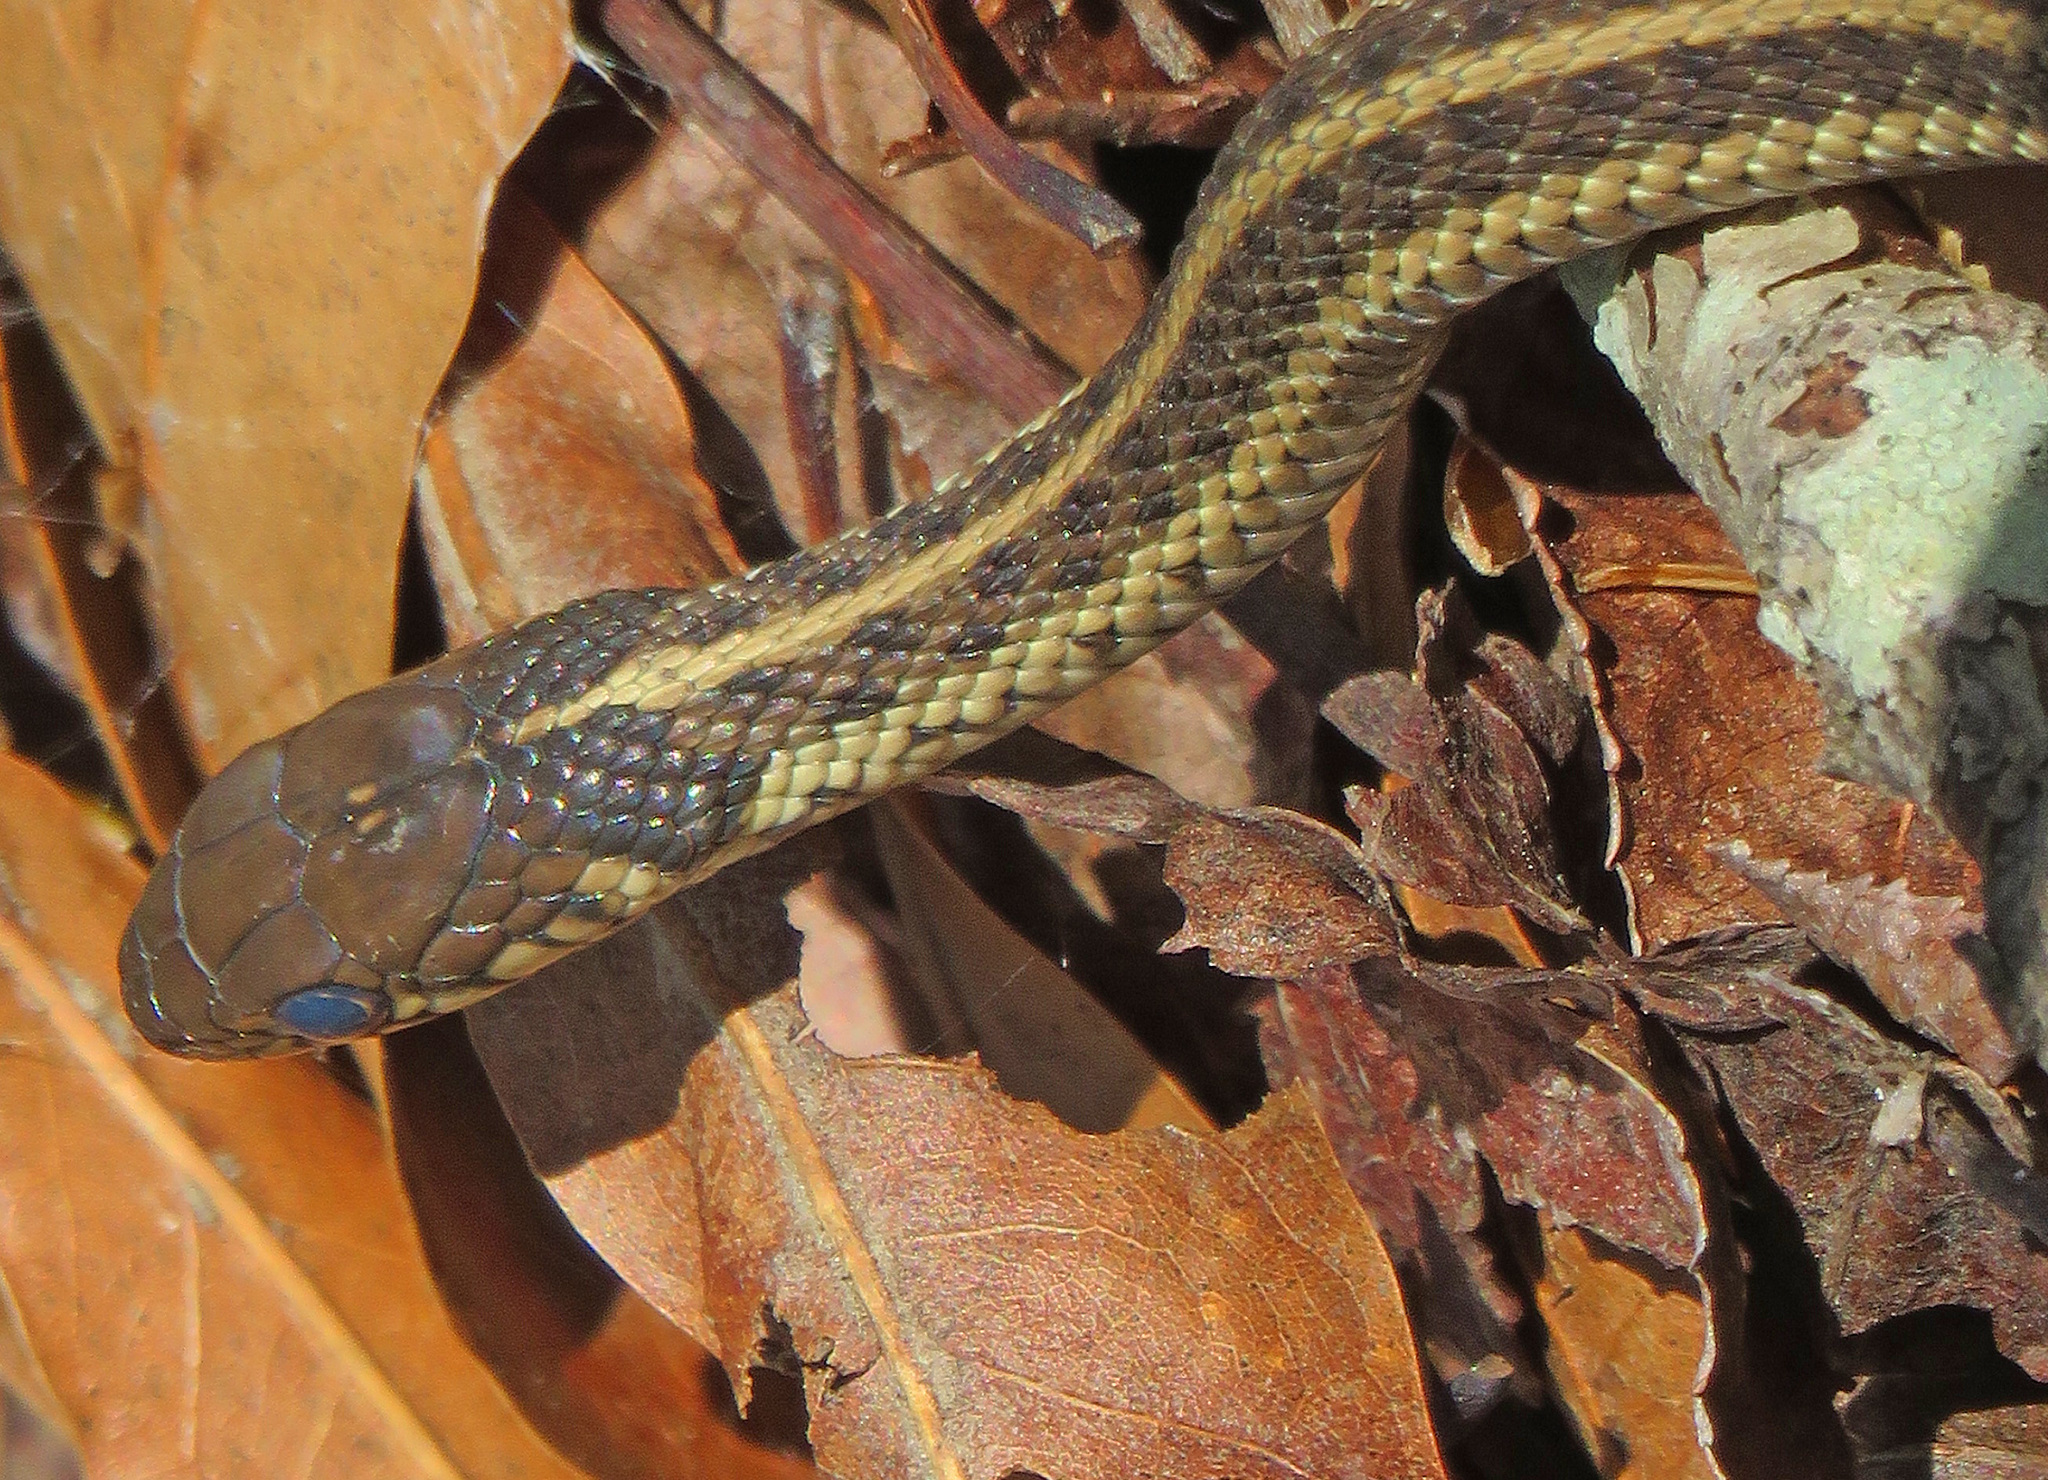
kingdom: Animalia
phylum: Chordata
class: Squamata
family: Colubridae
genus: Thamnophis
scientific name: Thamnophis sirtalis
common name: Common garter snake
